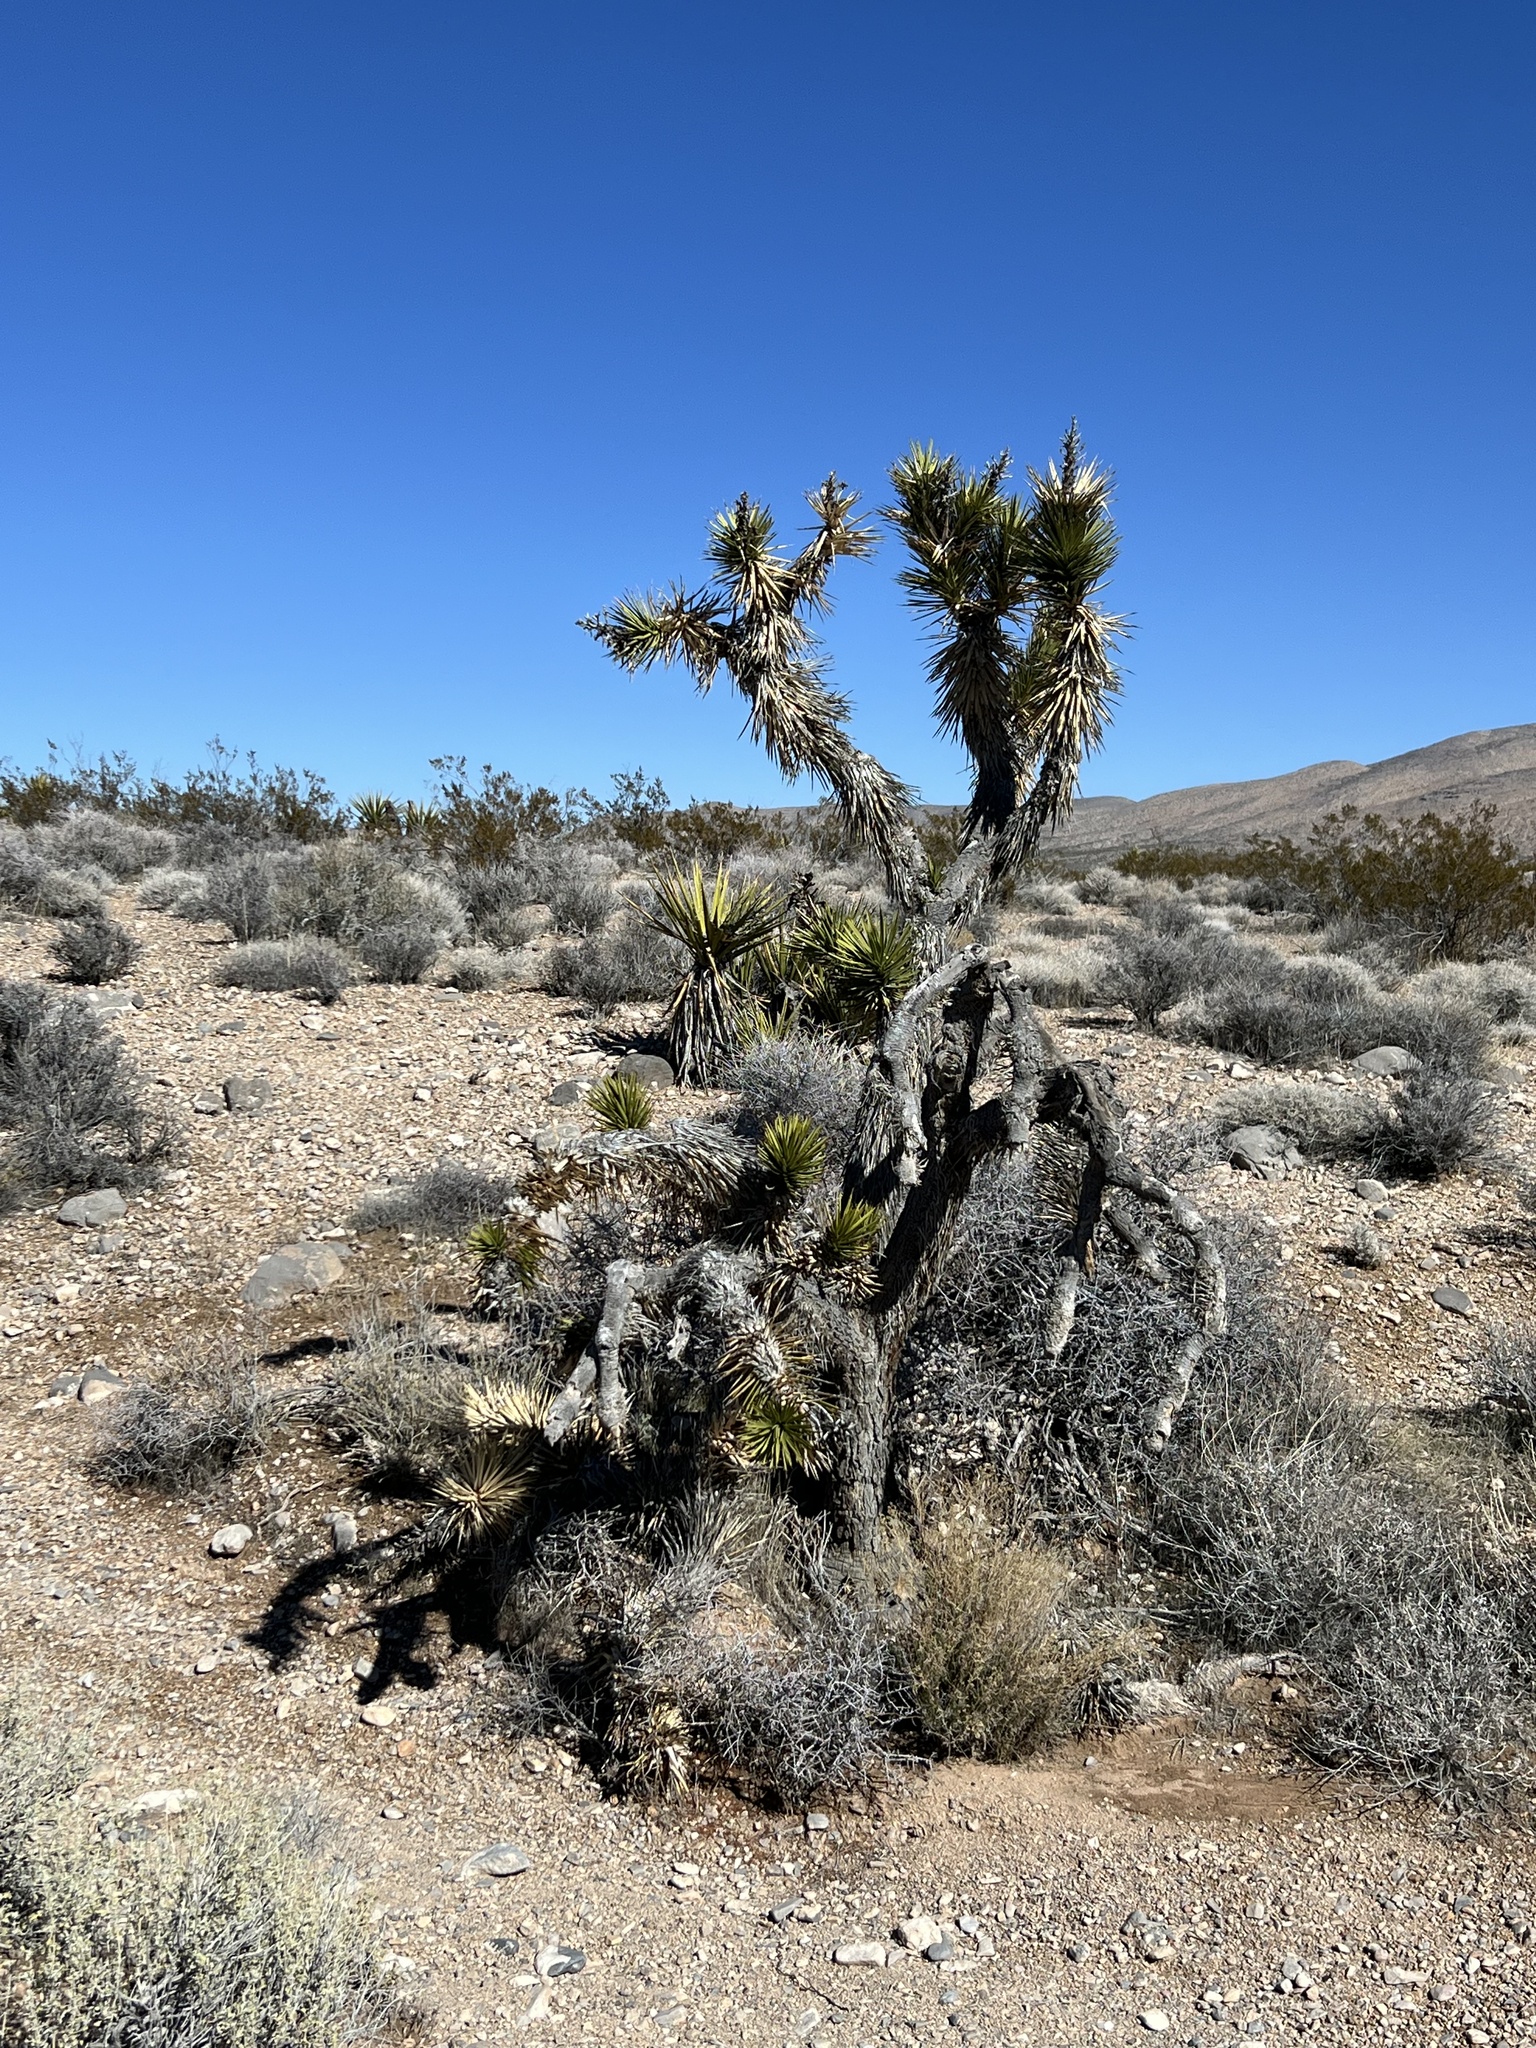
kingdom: Plantae
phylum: Tracheophyta
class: Liliopsida
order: Asparagales
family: Asparagaceae
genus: Yucca
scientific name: Yucca brevifolia
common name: Joshua tree
